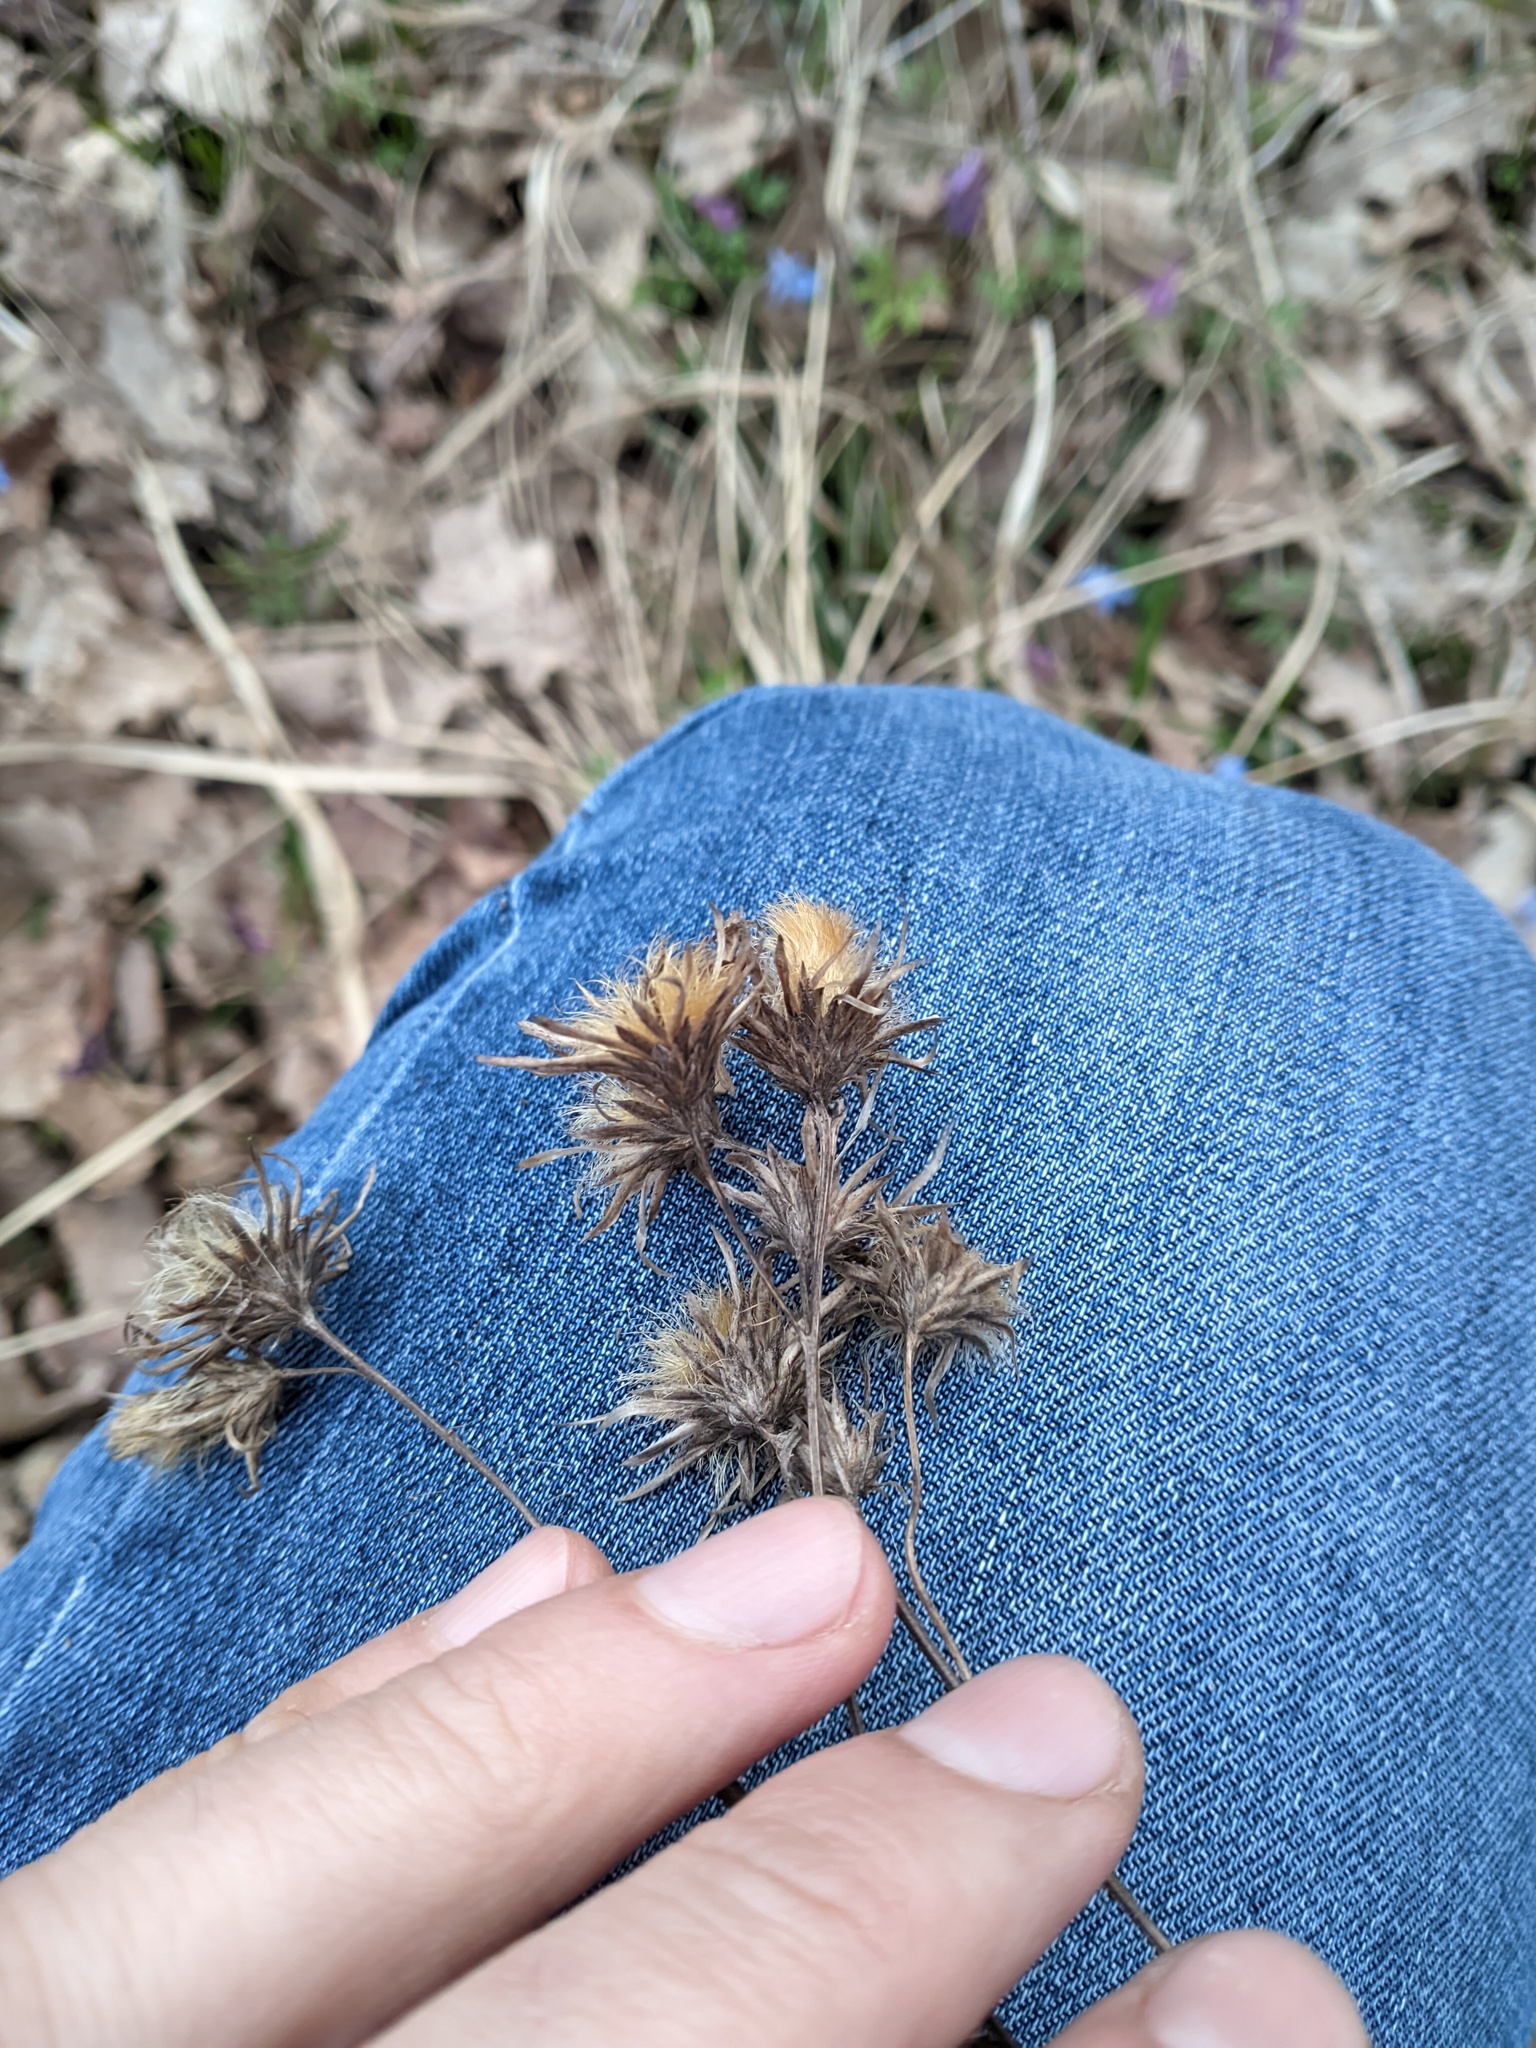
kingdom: Plantae
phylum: Tracheophyta
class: Magnoliopsida
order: Asterales
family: Asteraceae
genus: Serratula
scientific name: Serratula tinctoria
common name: Saw-wort
